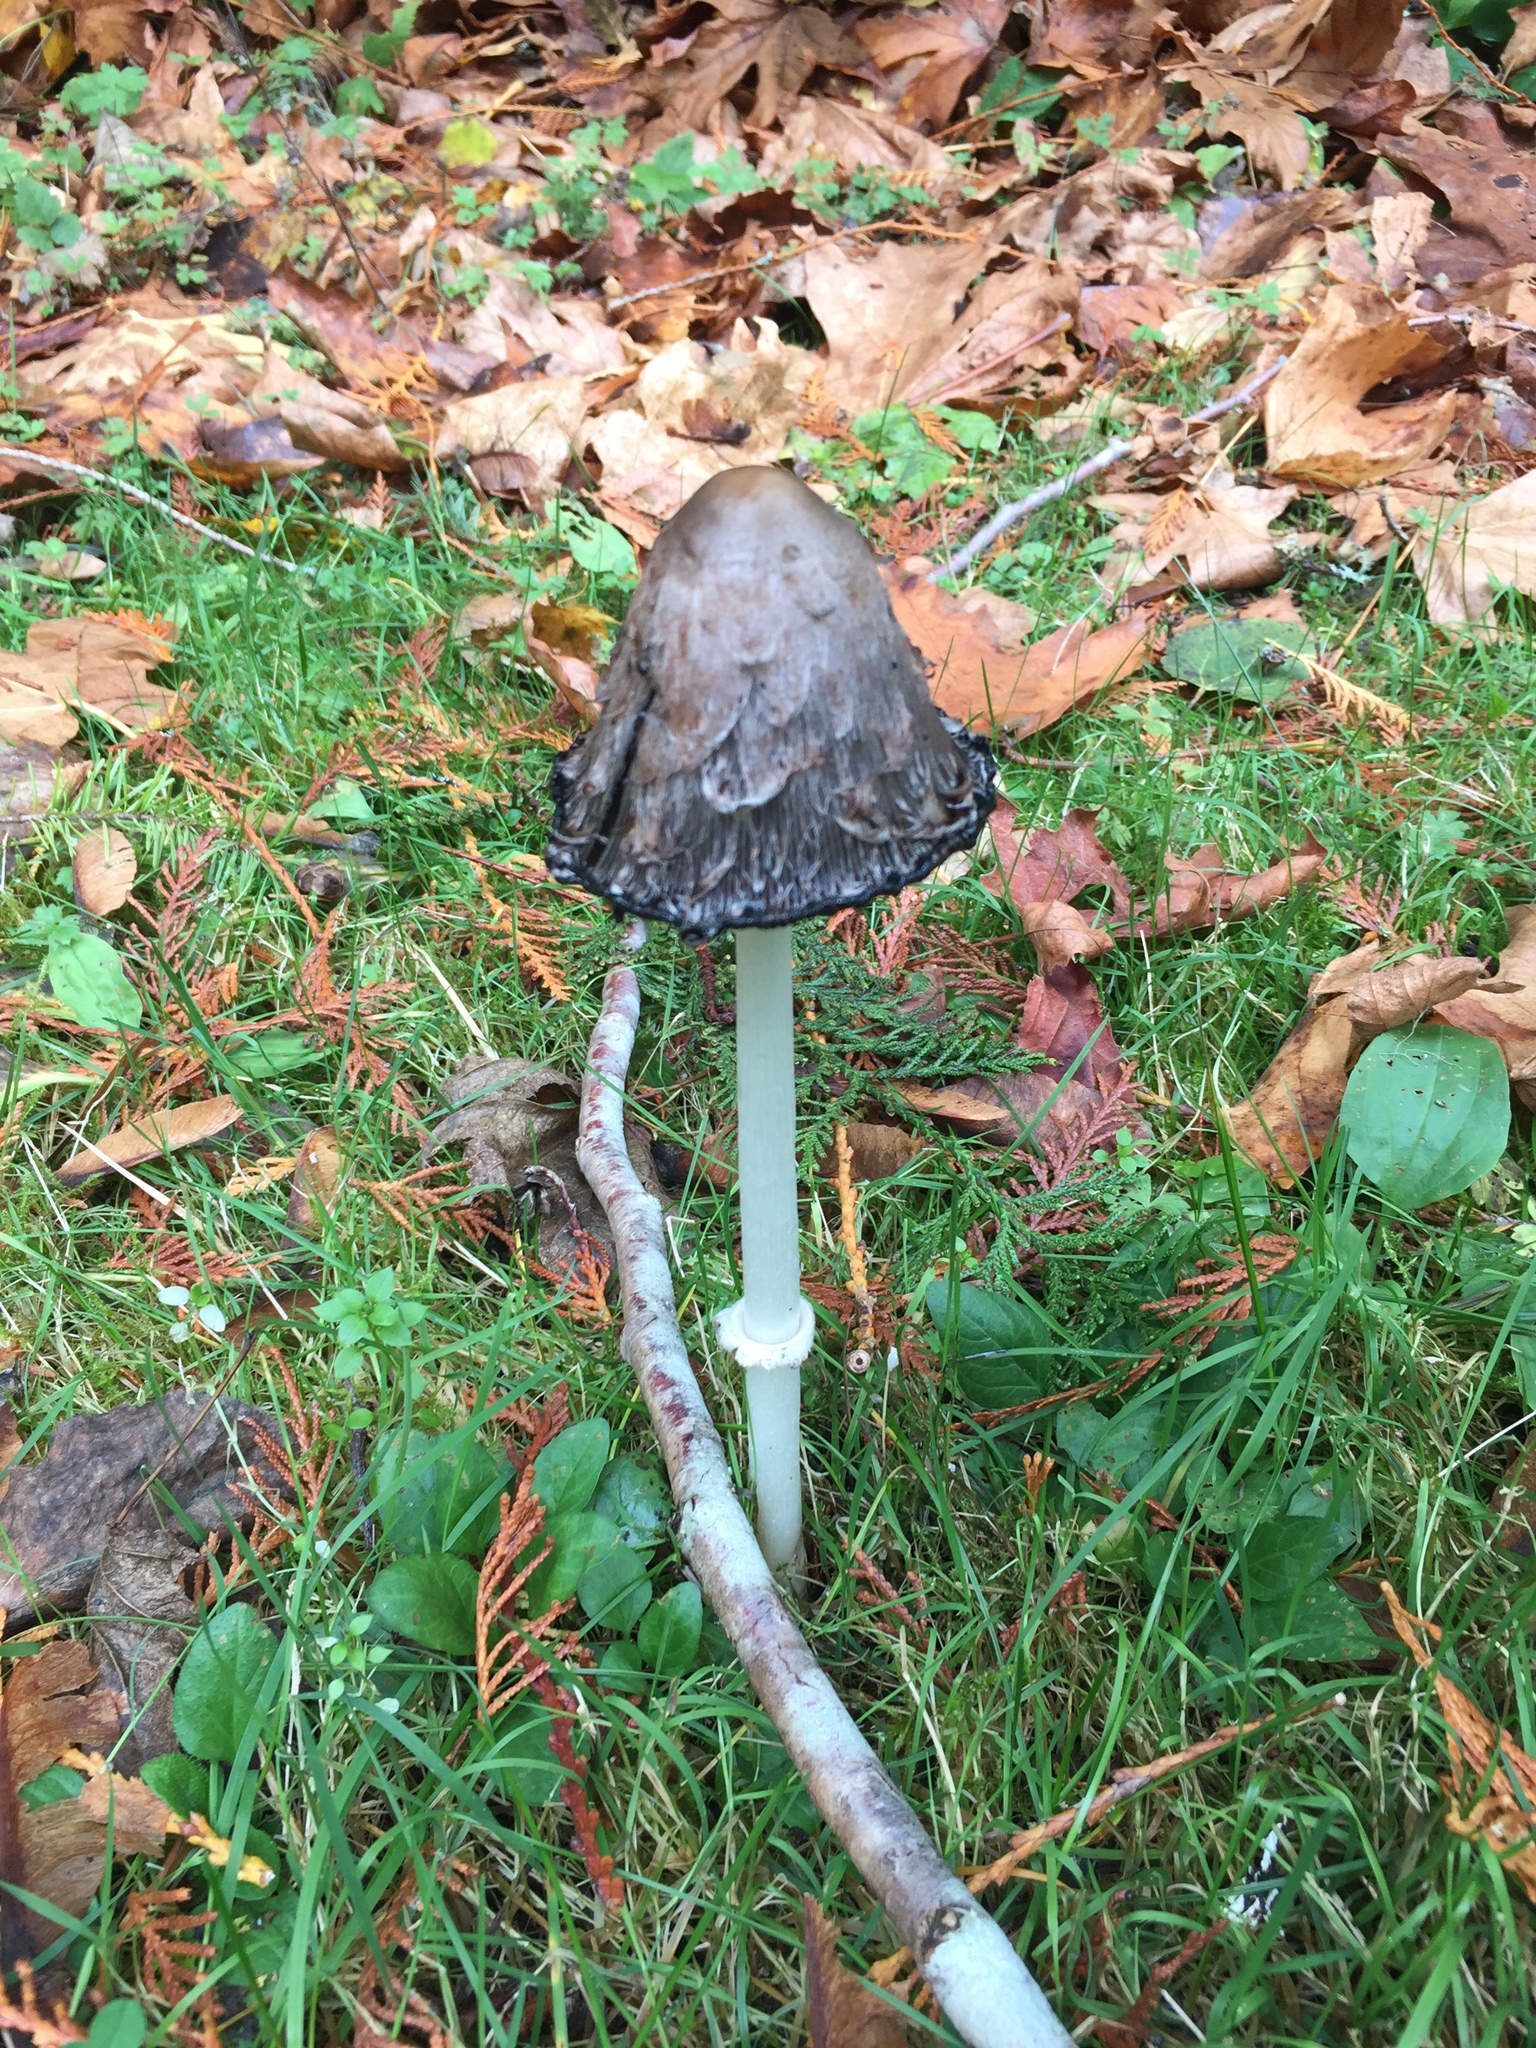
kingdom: Fungi
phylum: Basidiomycota
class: Agaricomycetes
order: Agaricales
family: Agaricaceae
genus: Coprinus
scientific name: Coprinus comatus
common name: Lawyer's wig
